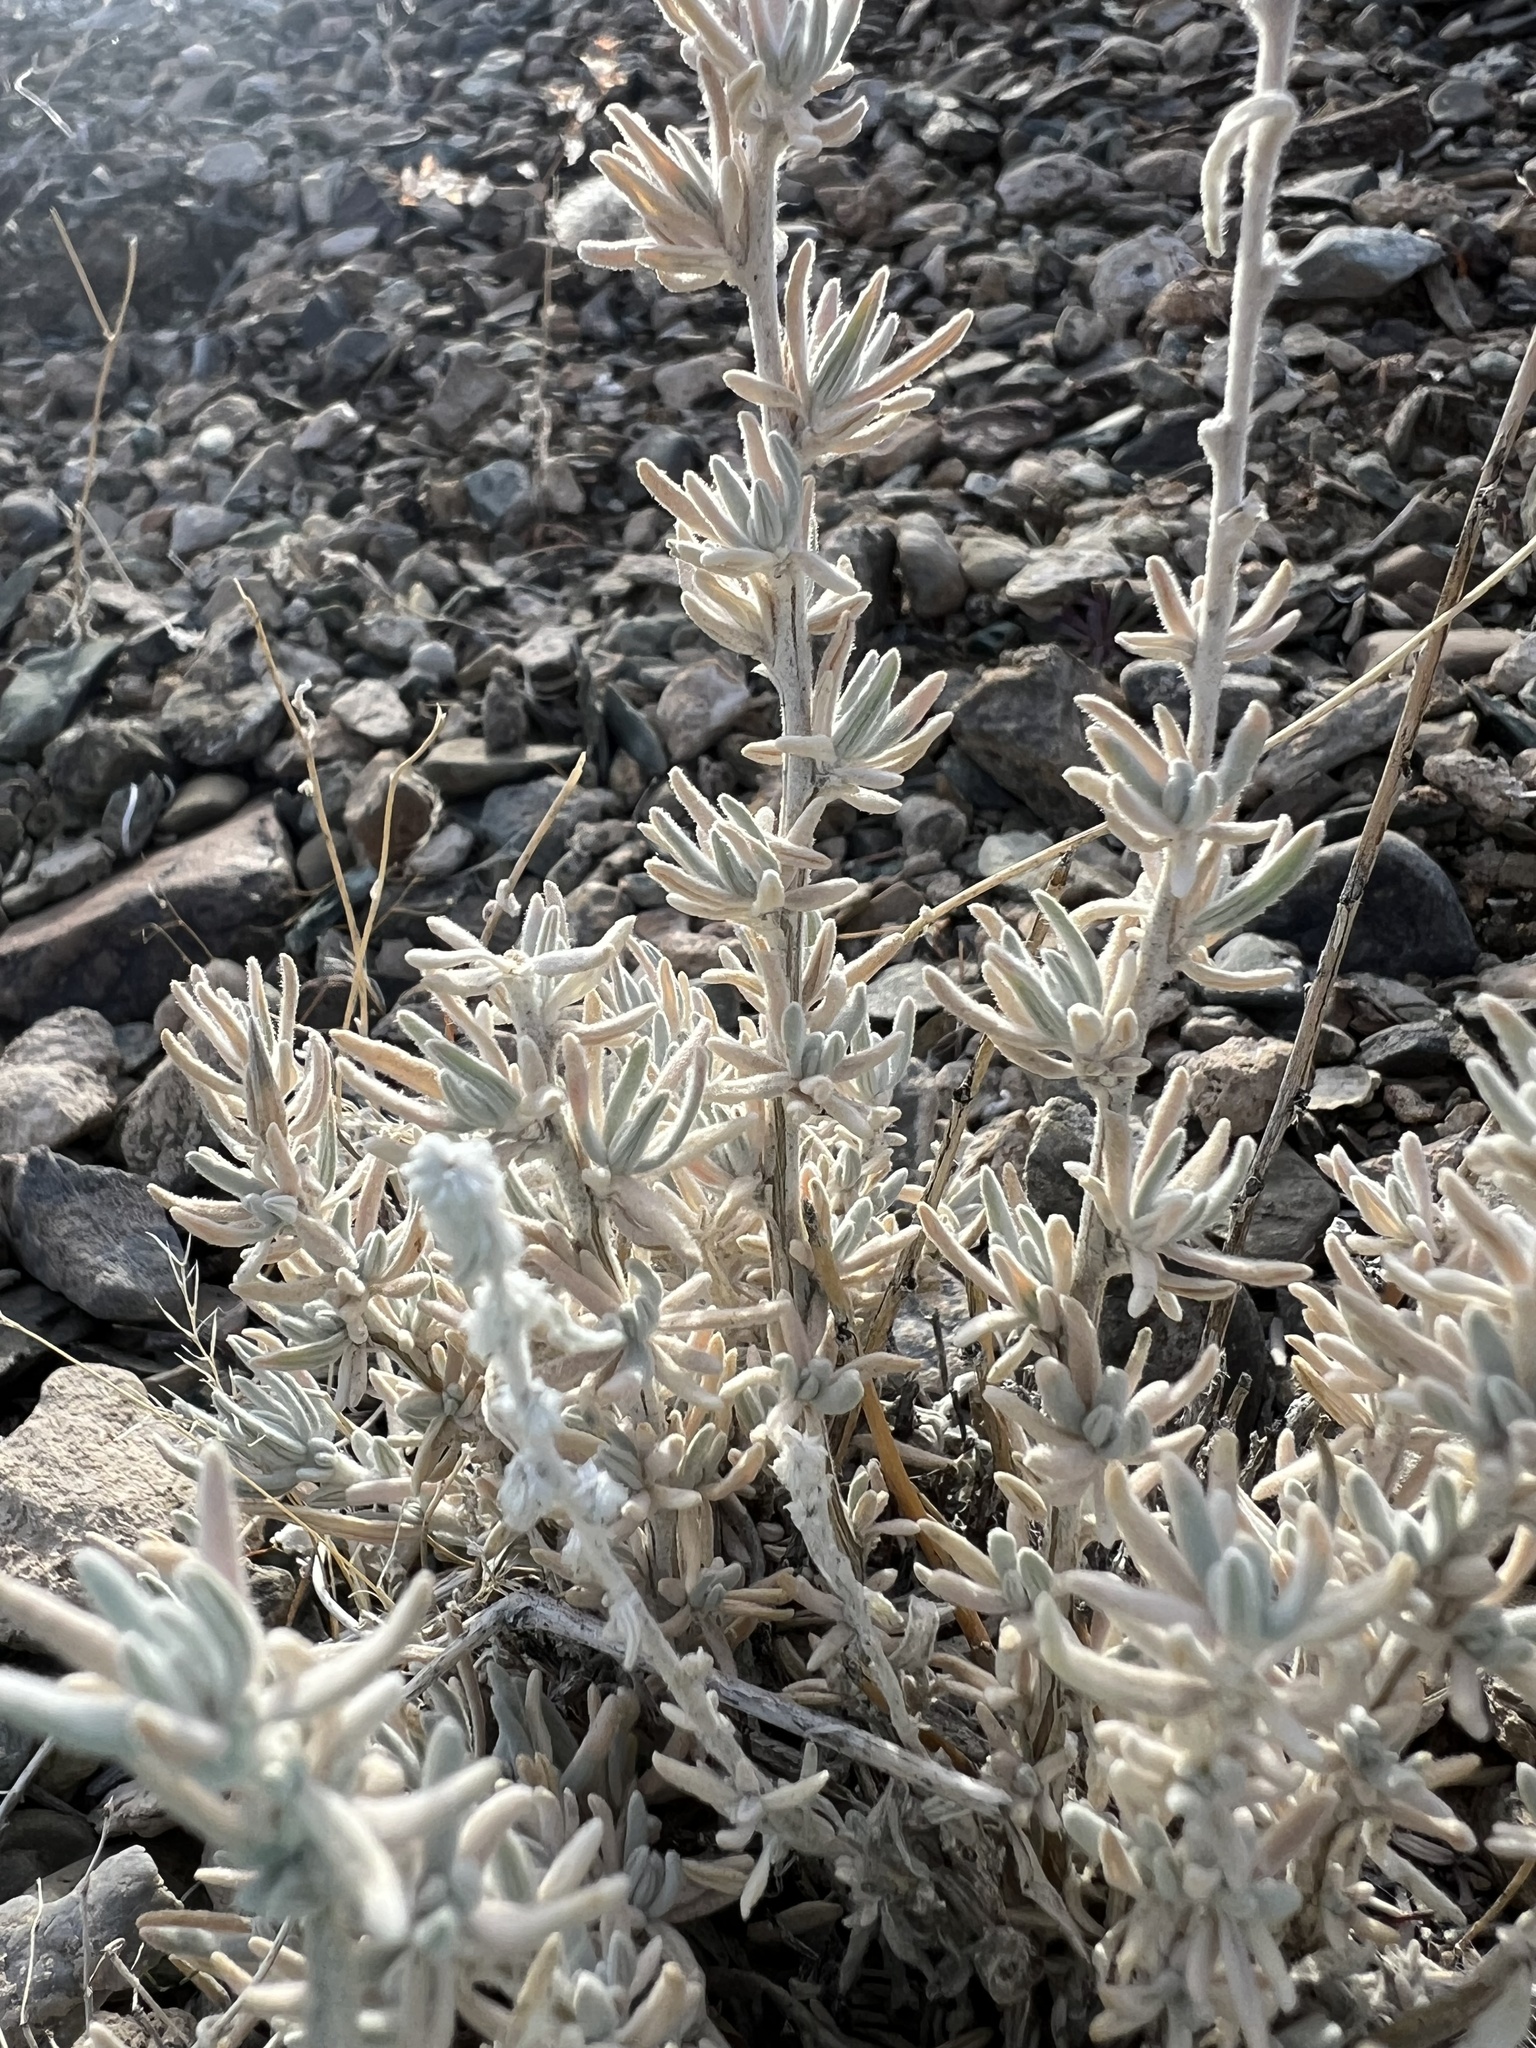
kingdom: Plantae
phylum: Tracheophyta
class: Magnoliopsida
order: Caryophyllales
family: Amaranthaceae
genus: Krascheninnikovia
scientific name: Krascheninnikovia lanata
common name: Winterfat
